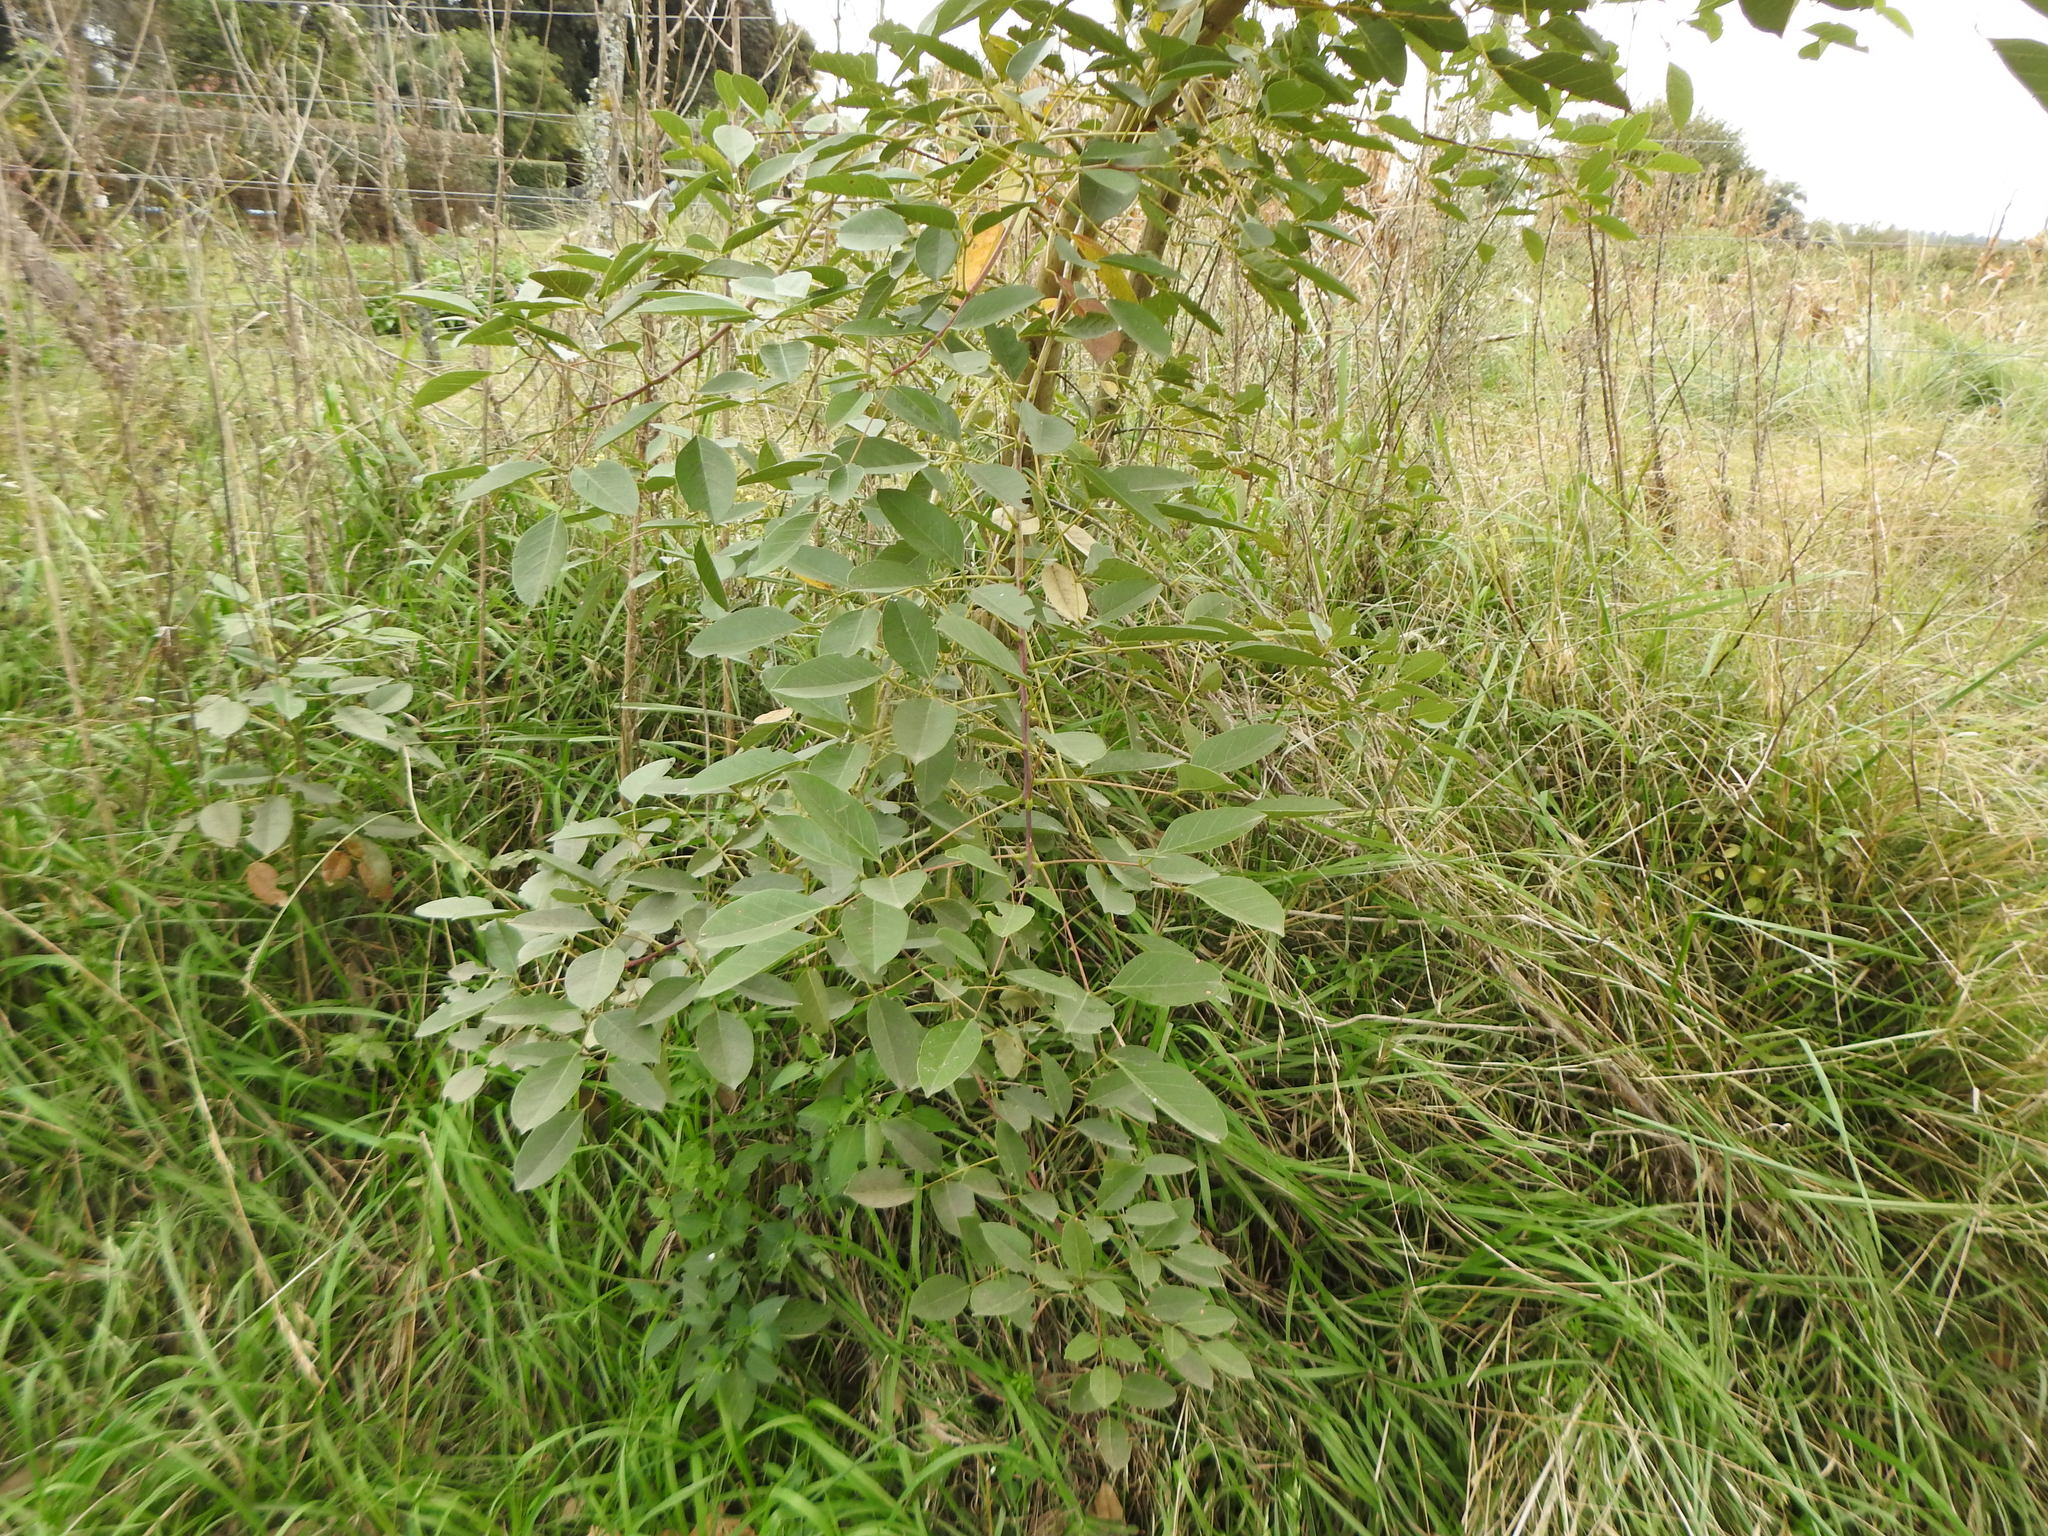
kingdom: Plantae
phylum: Tracheophyta
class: Magnoliopsida
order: Fabales
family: Fabaceae
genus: Erythrina
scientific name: Erythrina crista-galli
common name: Cockspur coral tree
